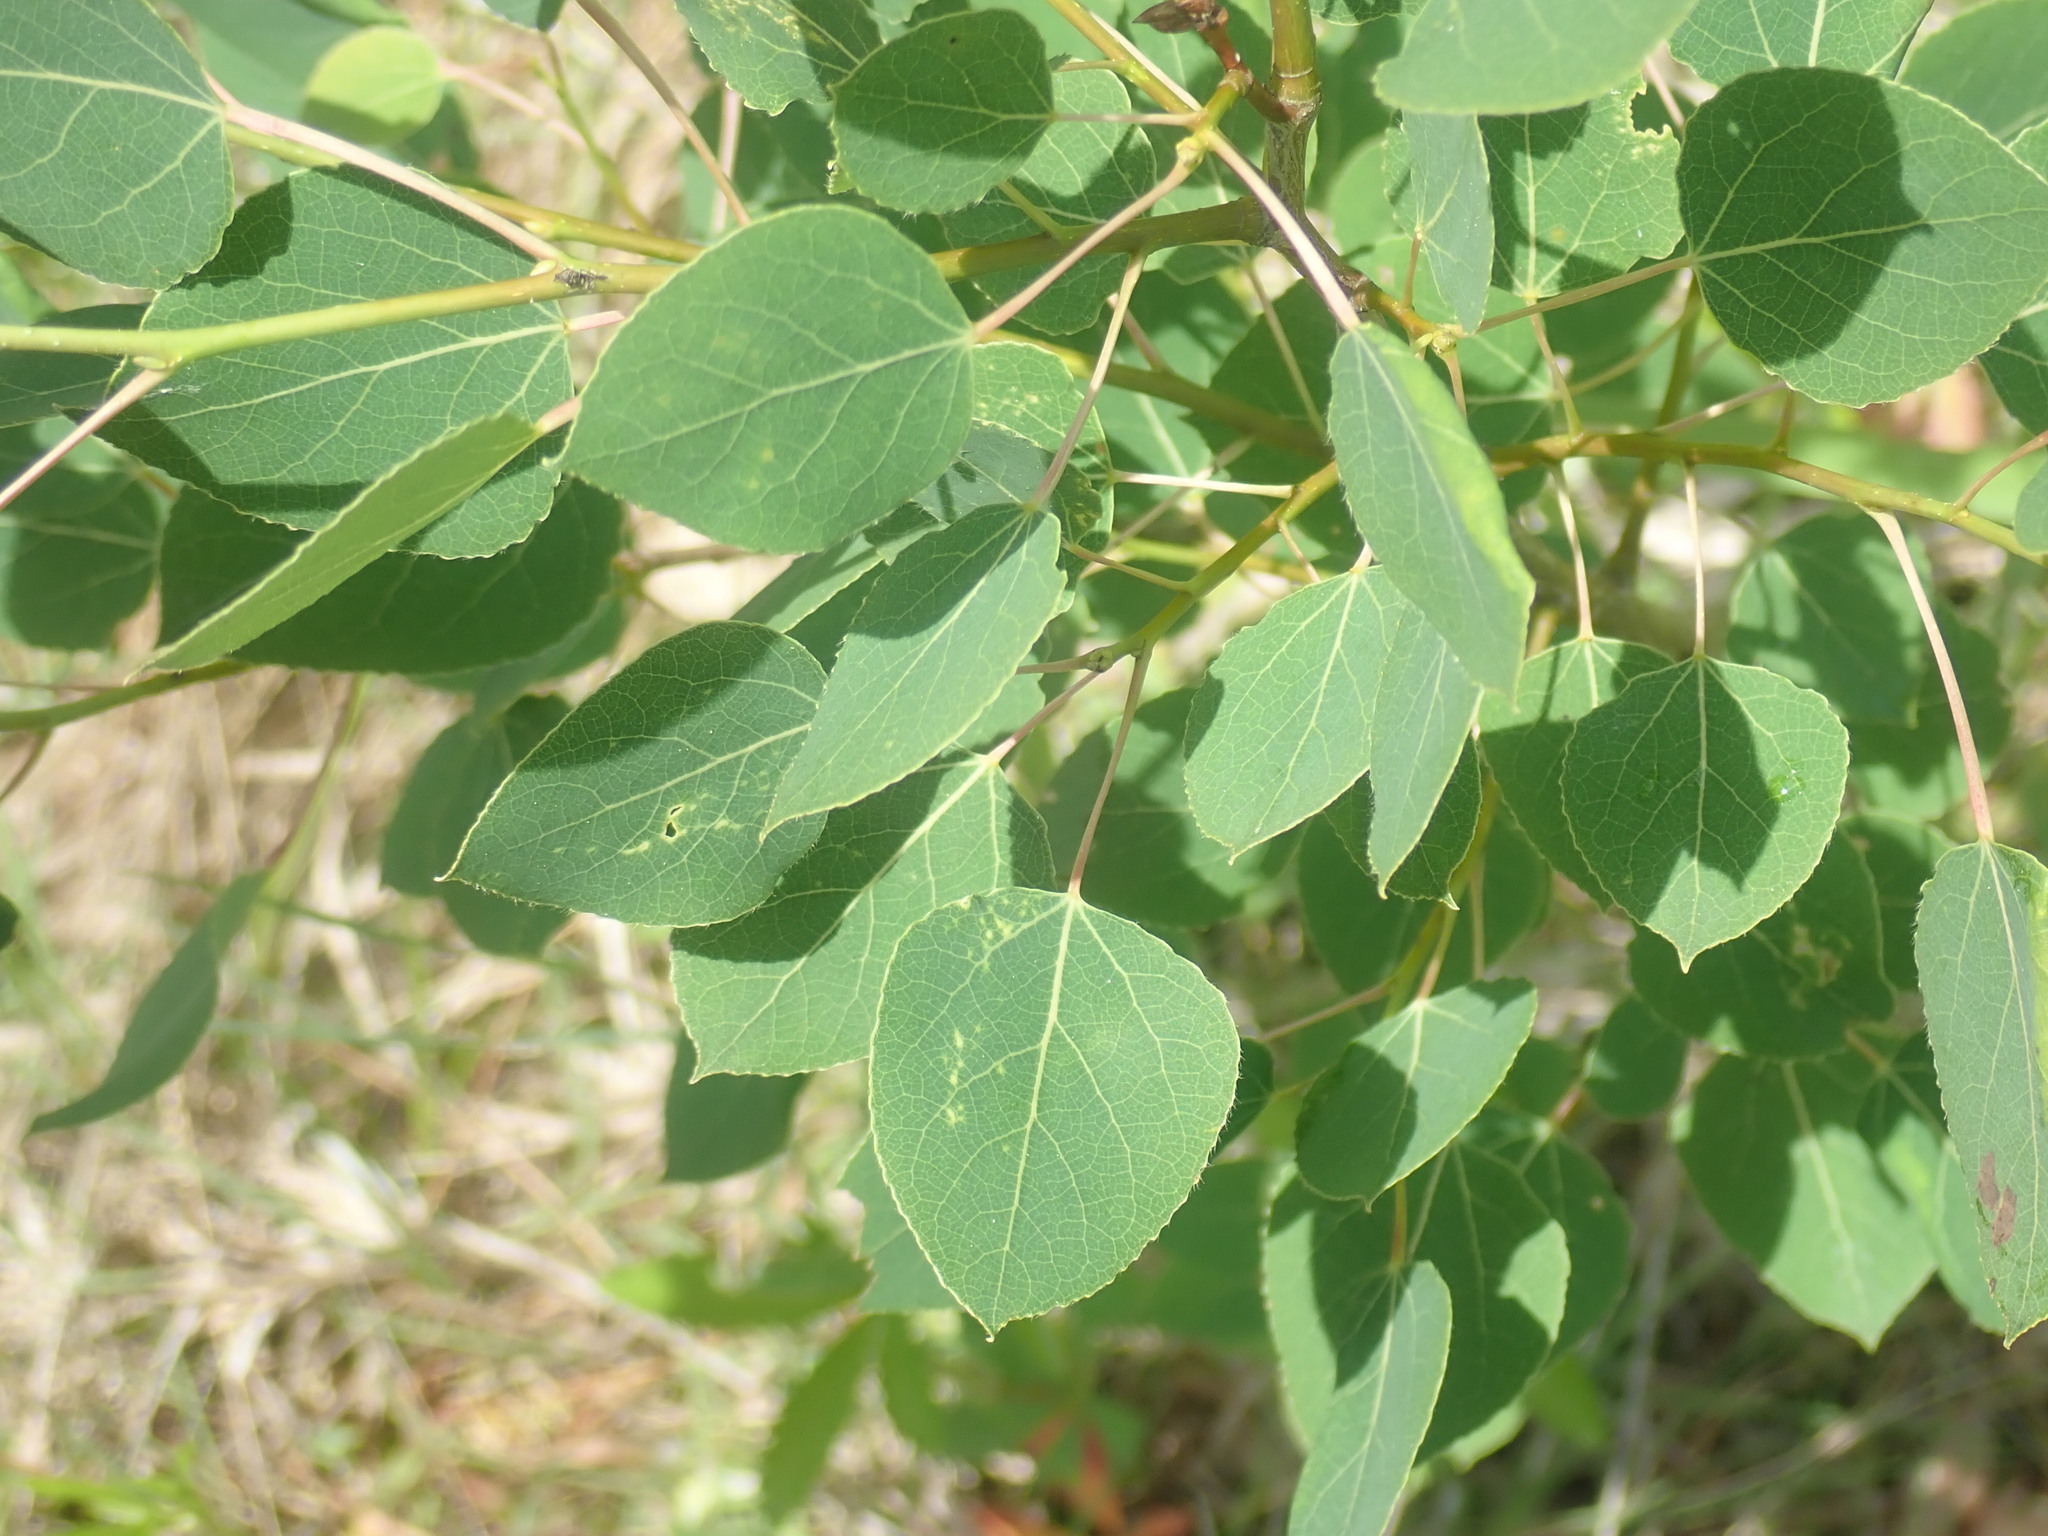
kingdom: Plantae
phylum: Tracheophyta
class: Magnoliopsida
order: Malpighiales
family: Salicaceae
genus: Populus
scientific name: Populus tremuloides
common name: Quaking aspen
